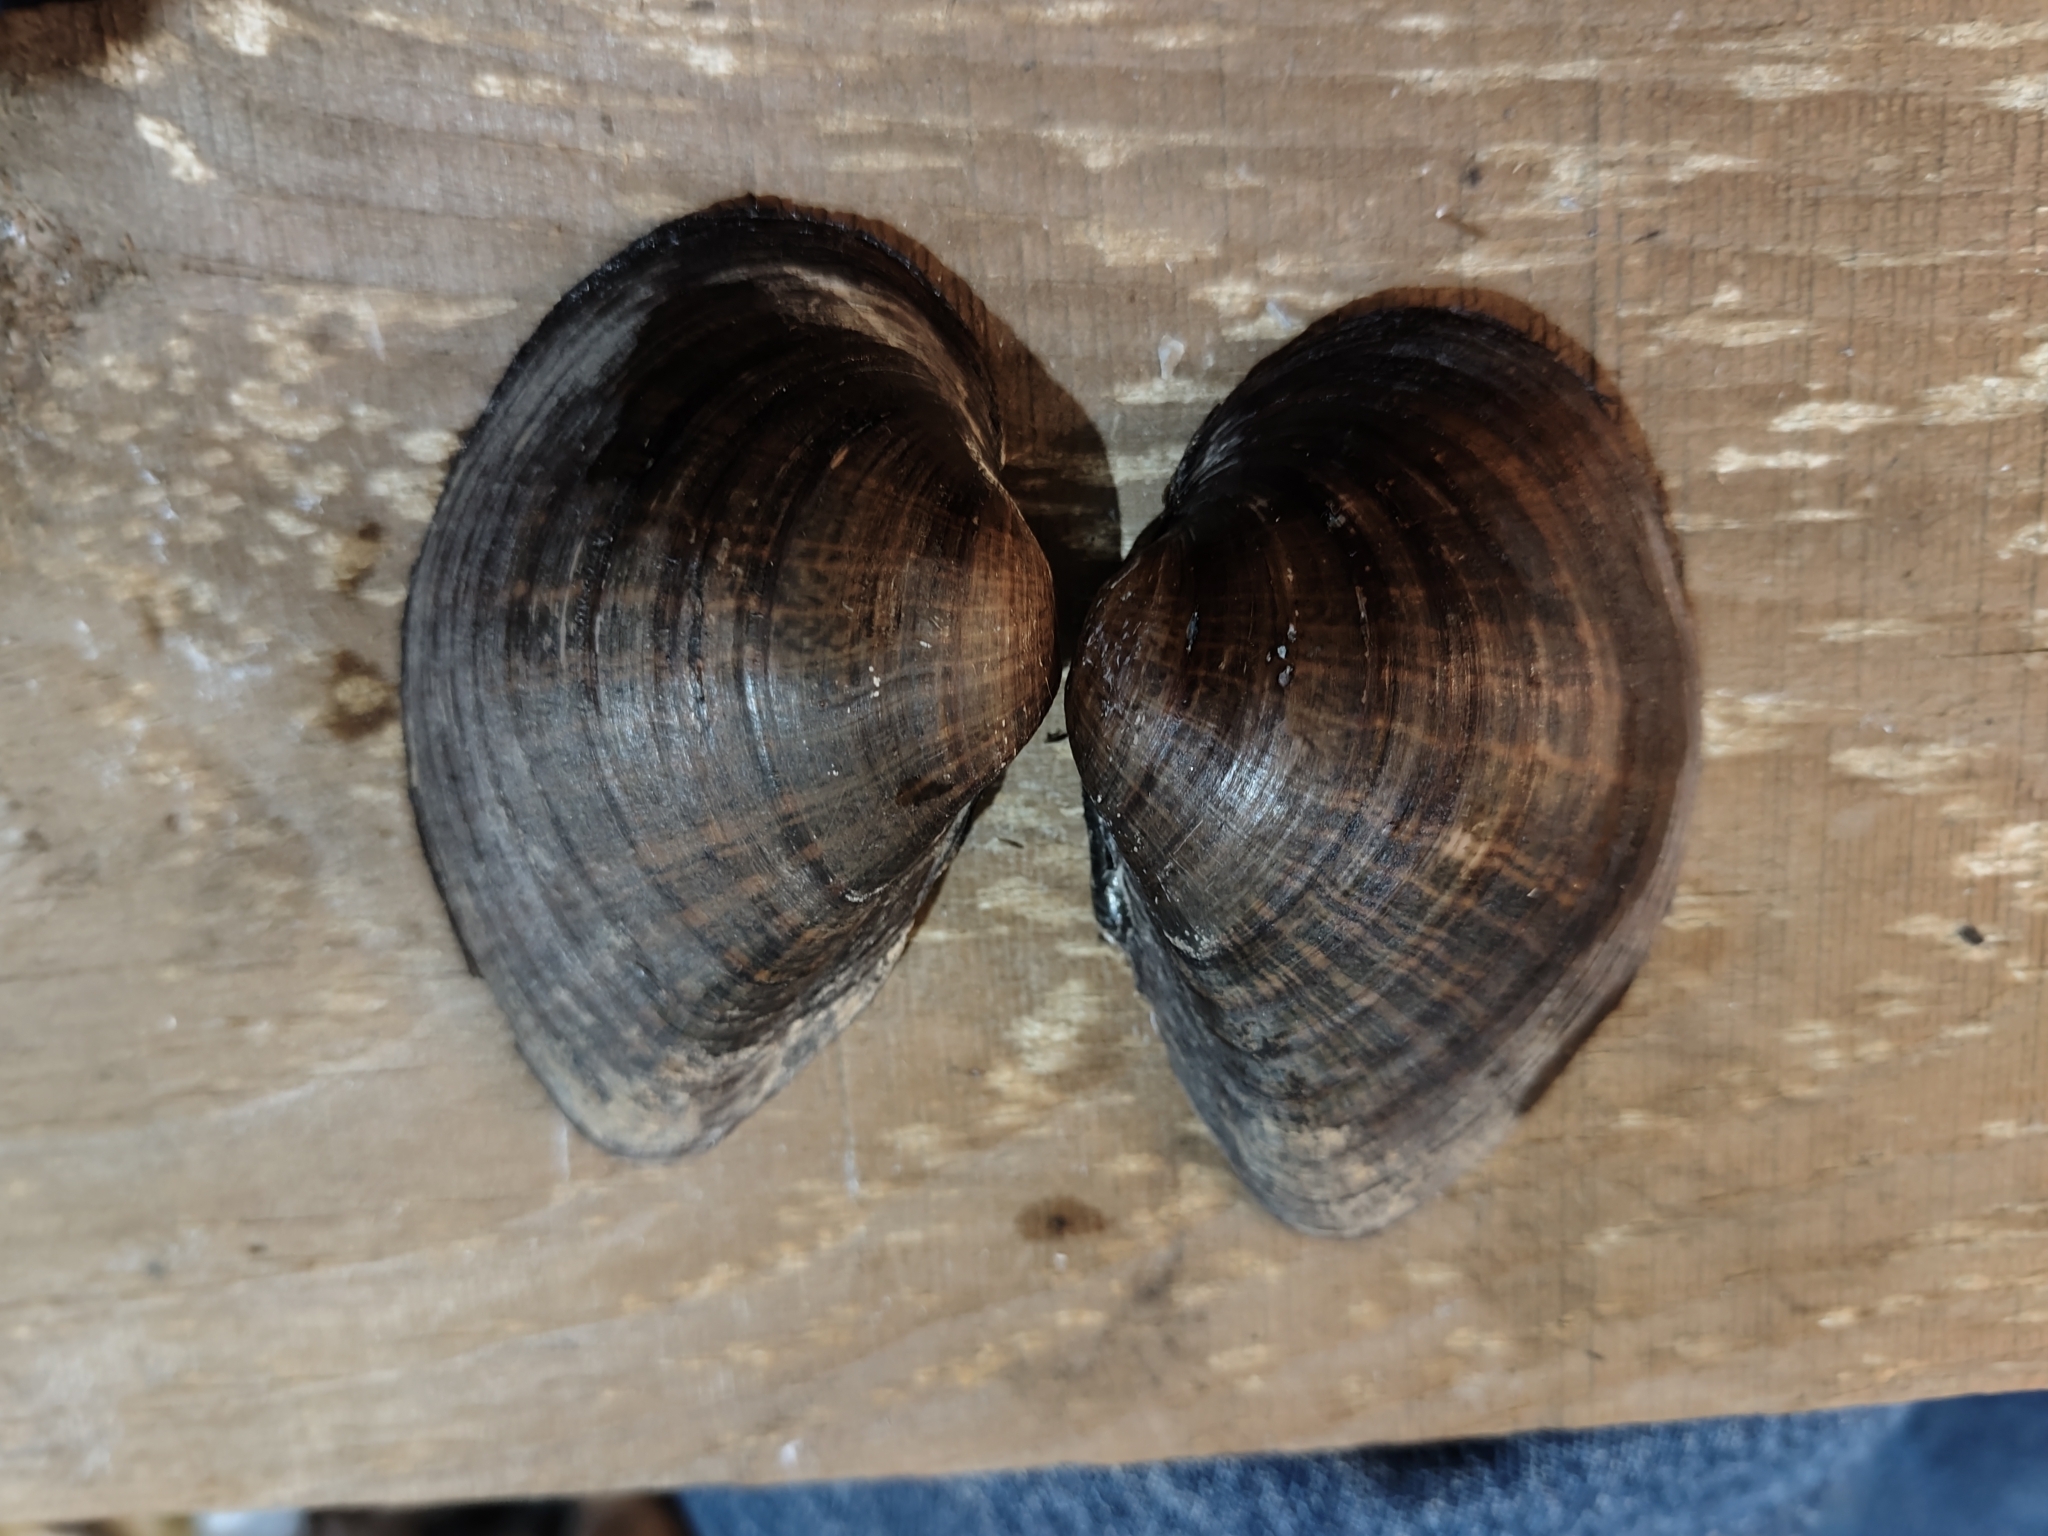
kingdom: Animalia
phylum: Mollusca
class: Bivalvia
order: Unionida
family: Unionidae
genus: Truncilla
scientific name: Truncilla truncata
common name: Deertoe
